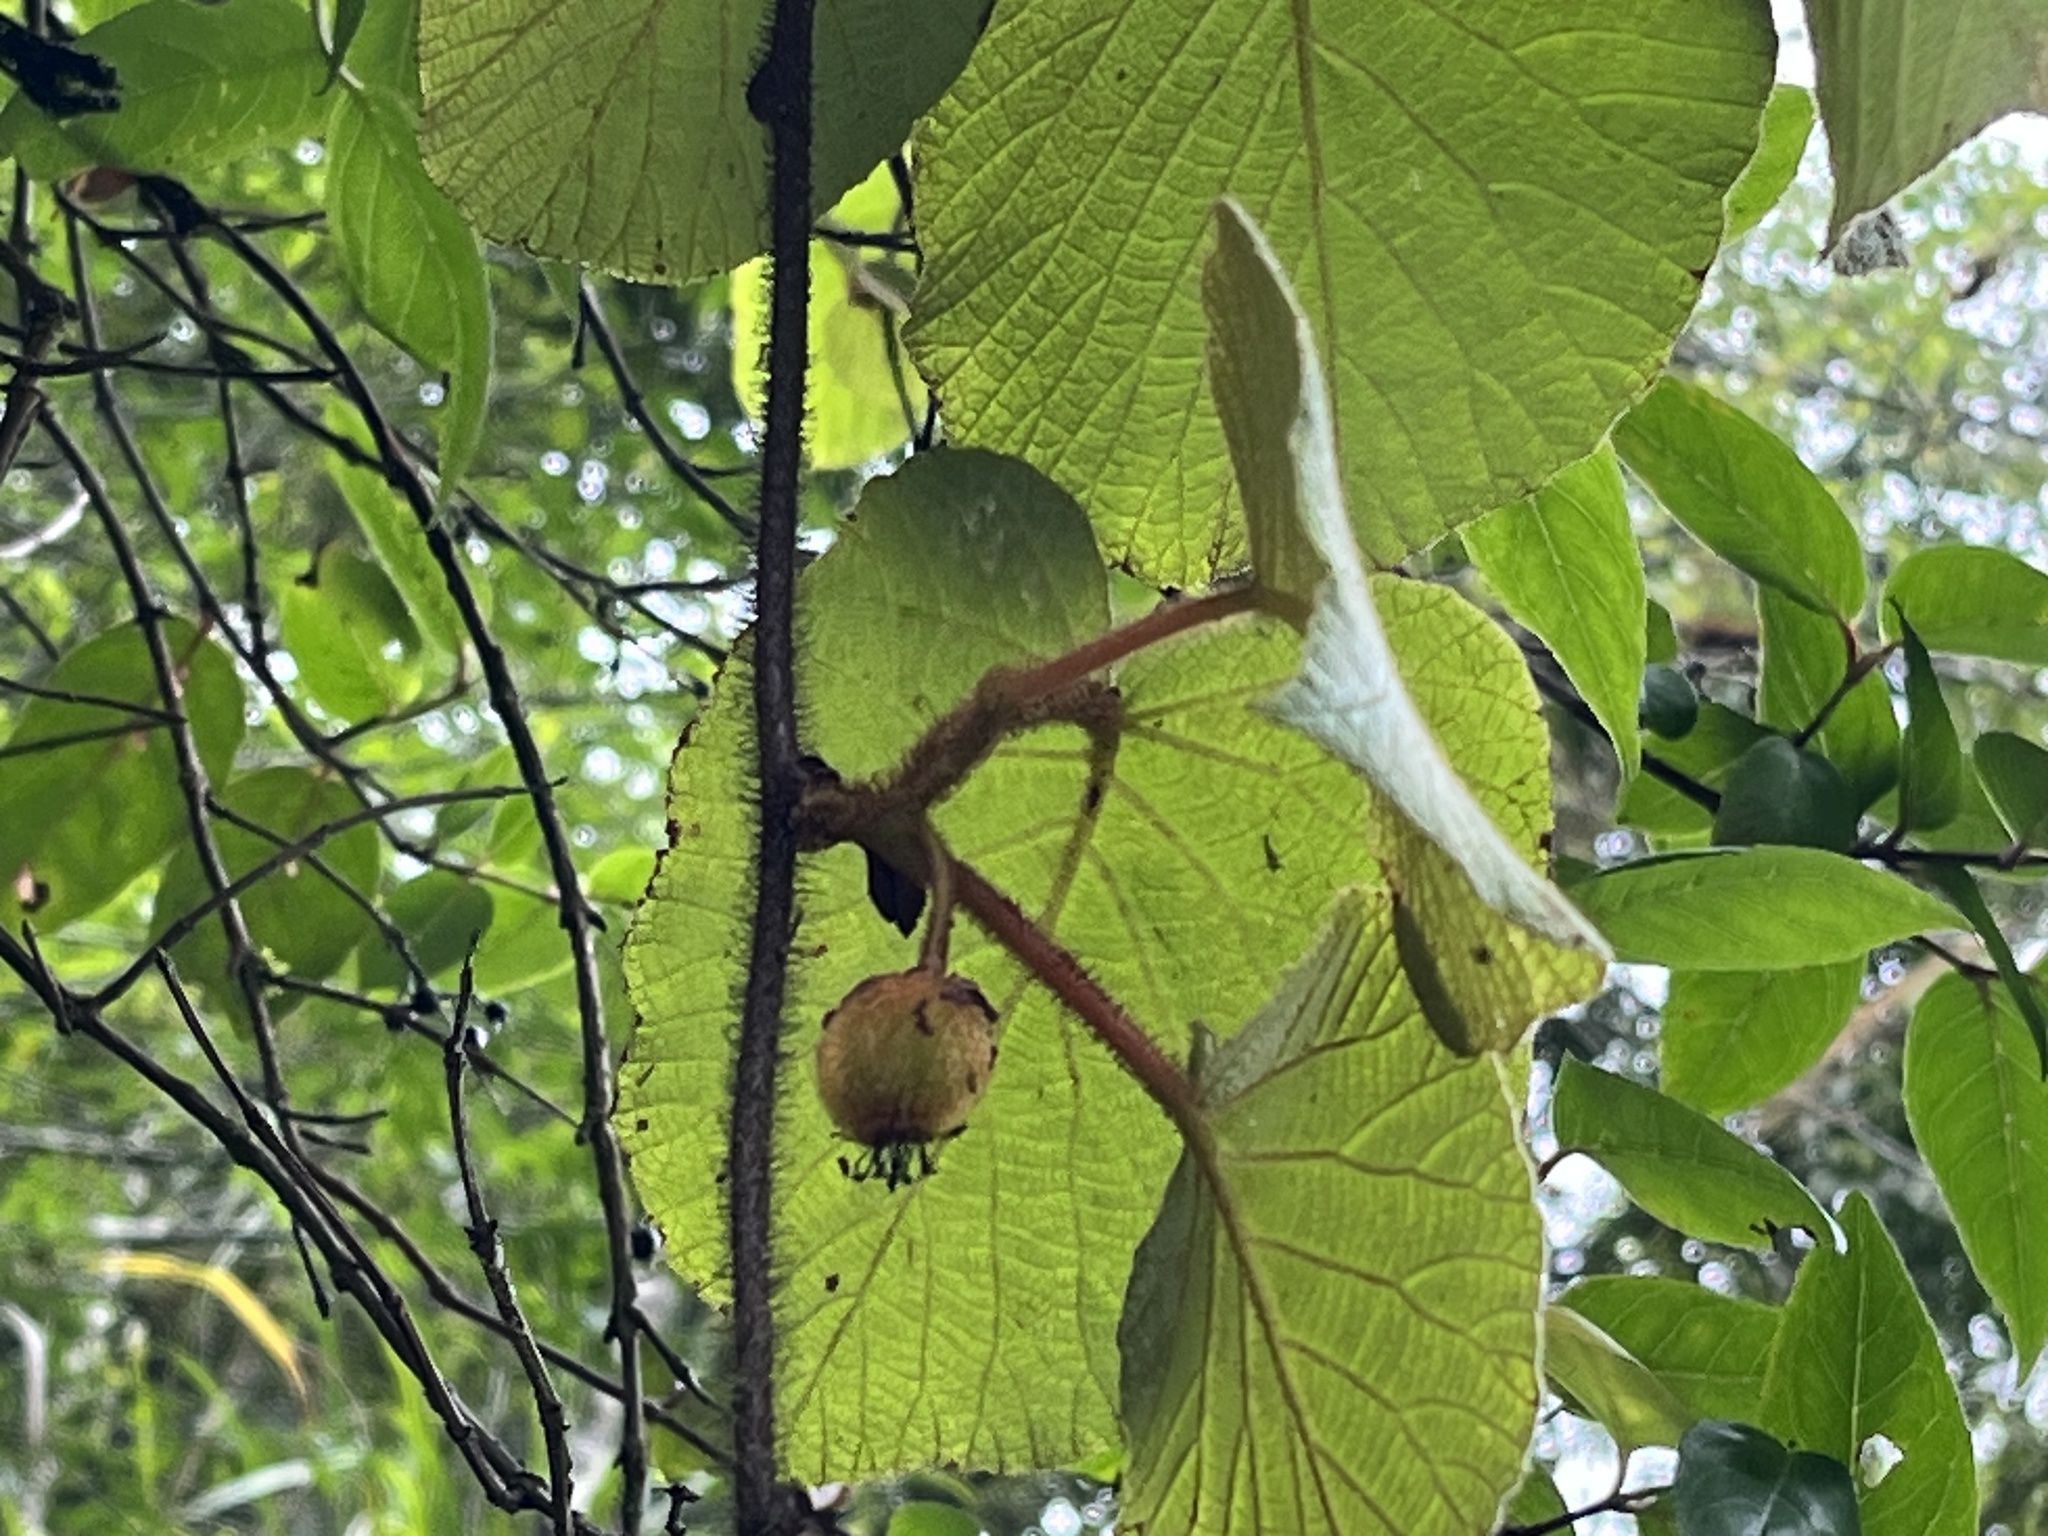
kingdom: Plantae
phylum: Tracheophyta
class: Magnoliopsida
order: Ericales
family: Actinidiaceae
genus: Actinidia
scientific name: Actinidia chinensis
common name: Kiwi
